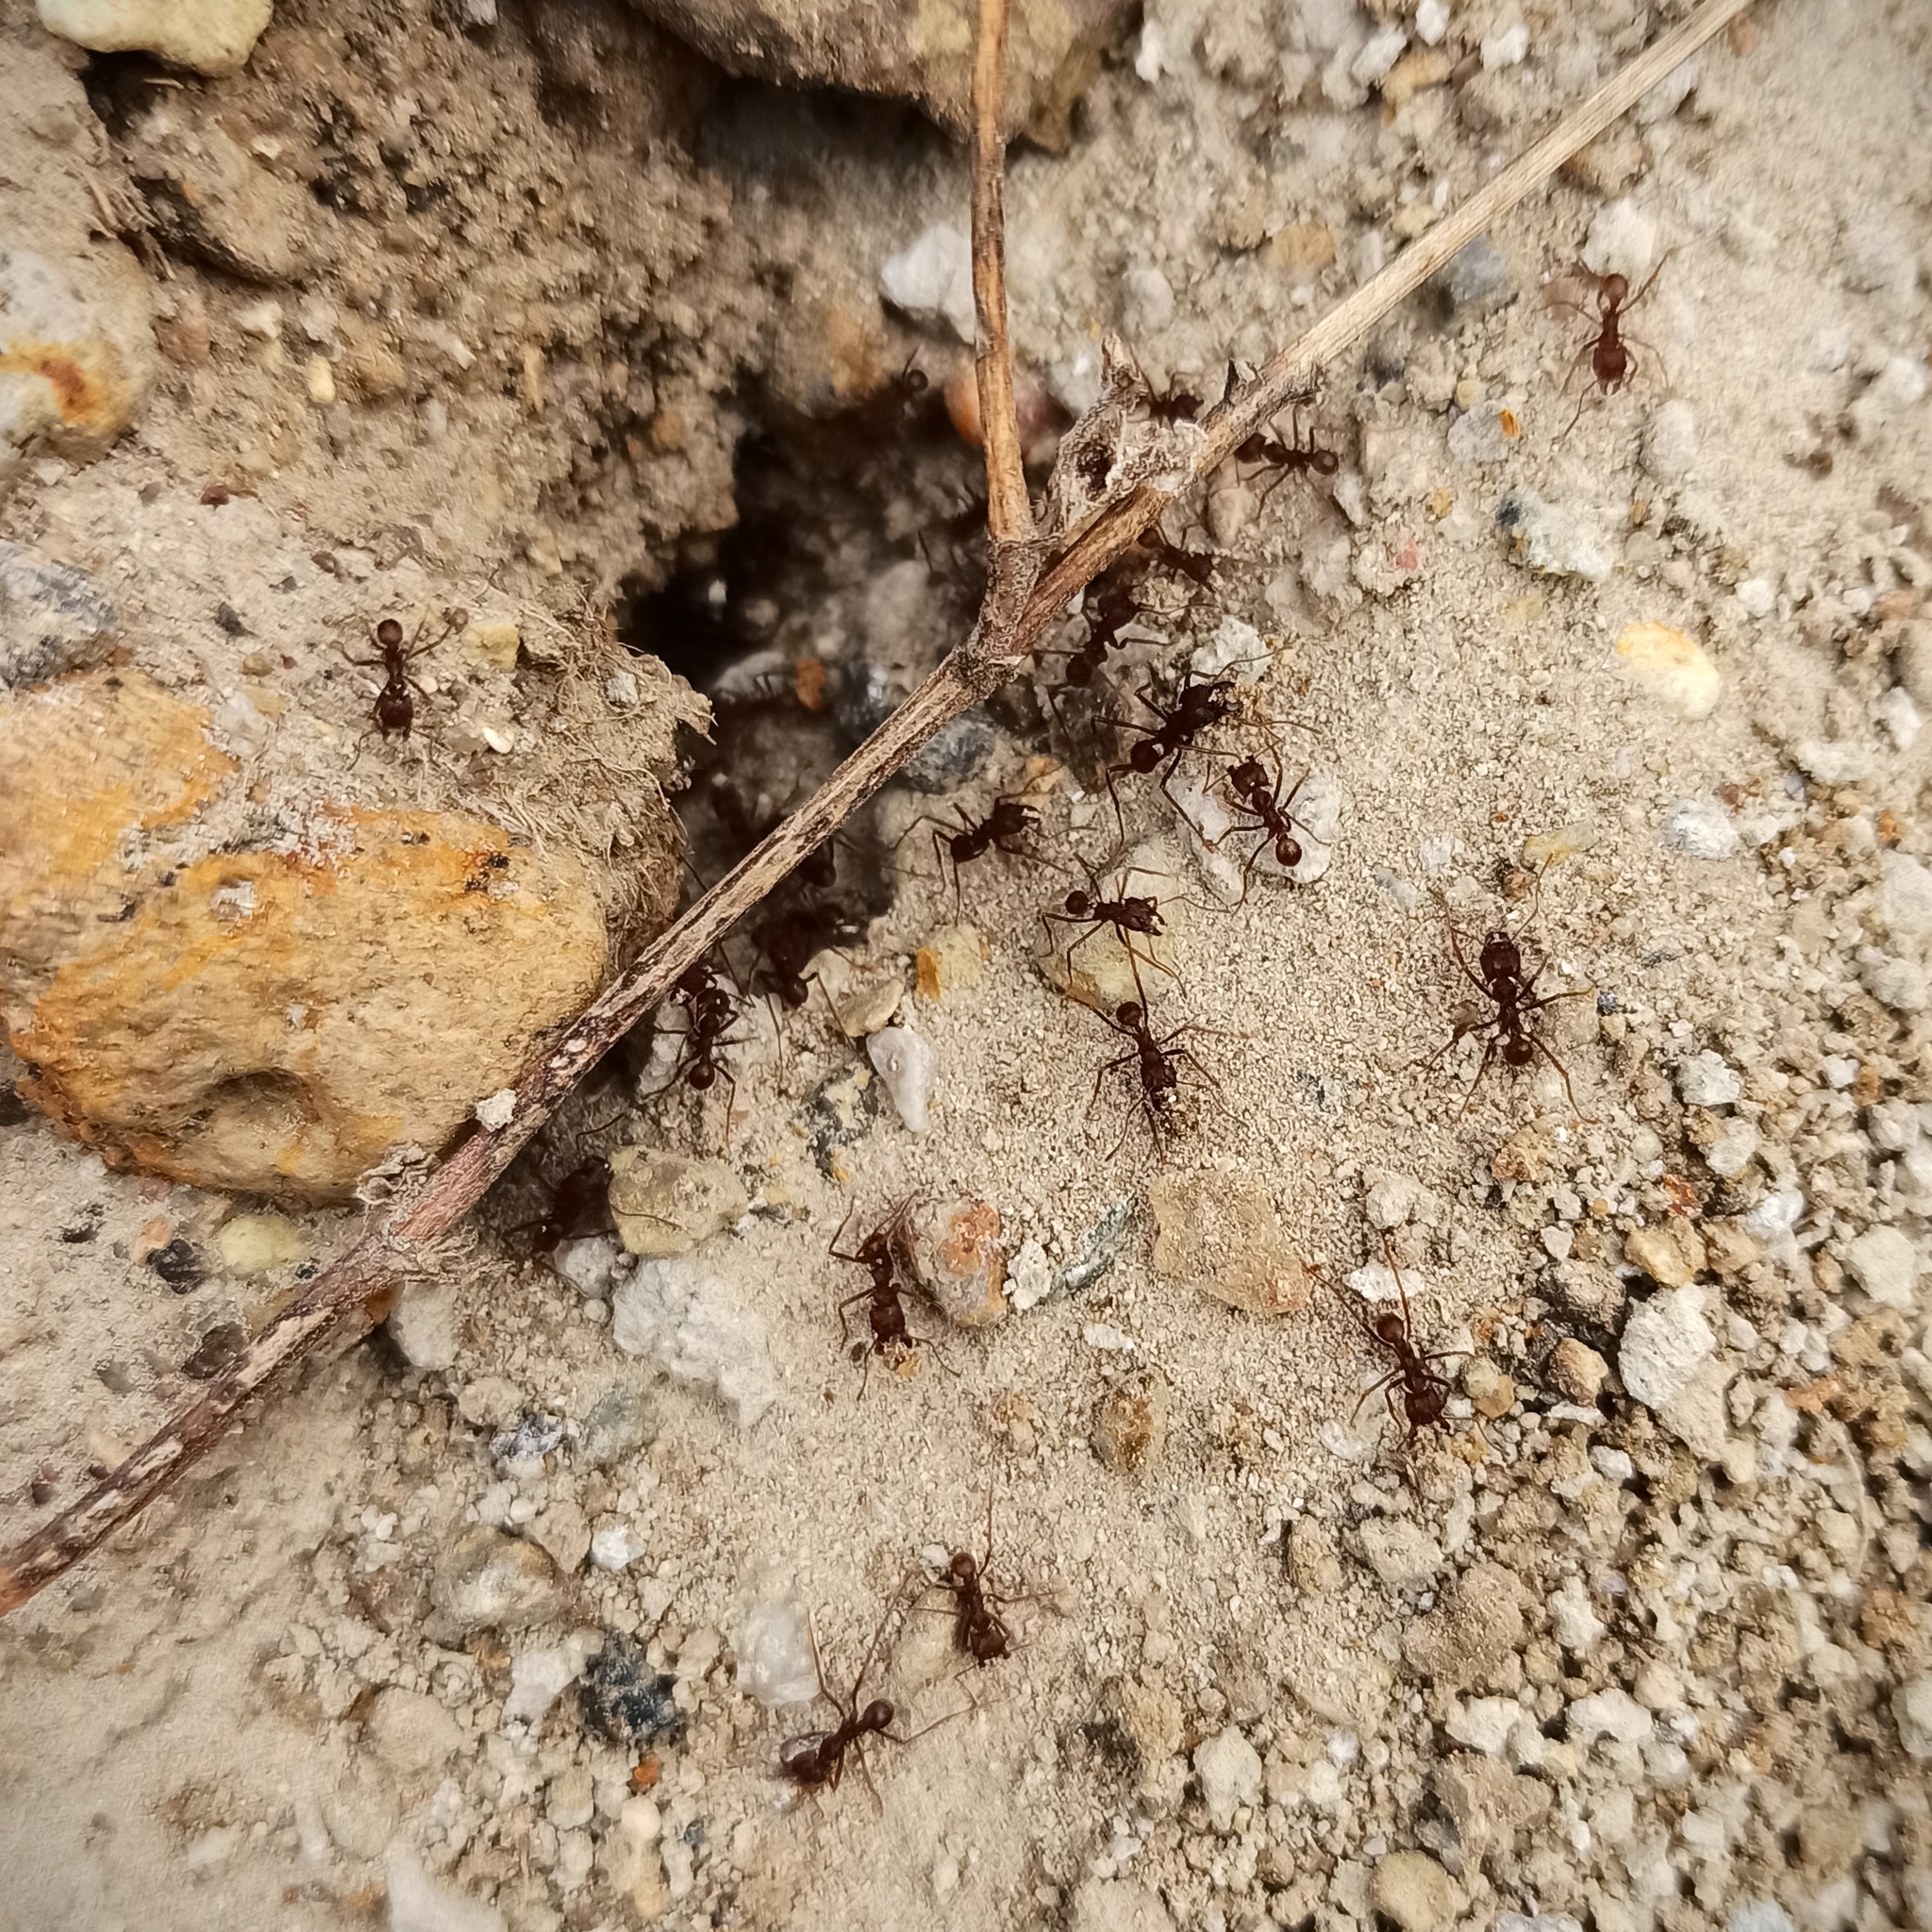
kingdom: Animalia
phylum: Arthropoda
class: Insecta
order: Hymenoptera
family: Formicidae
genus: Atta
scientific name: Atta mexicana
